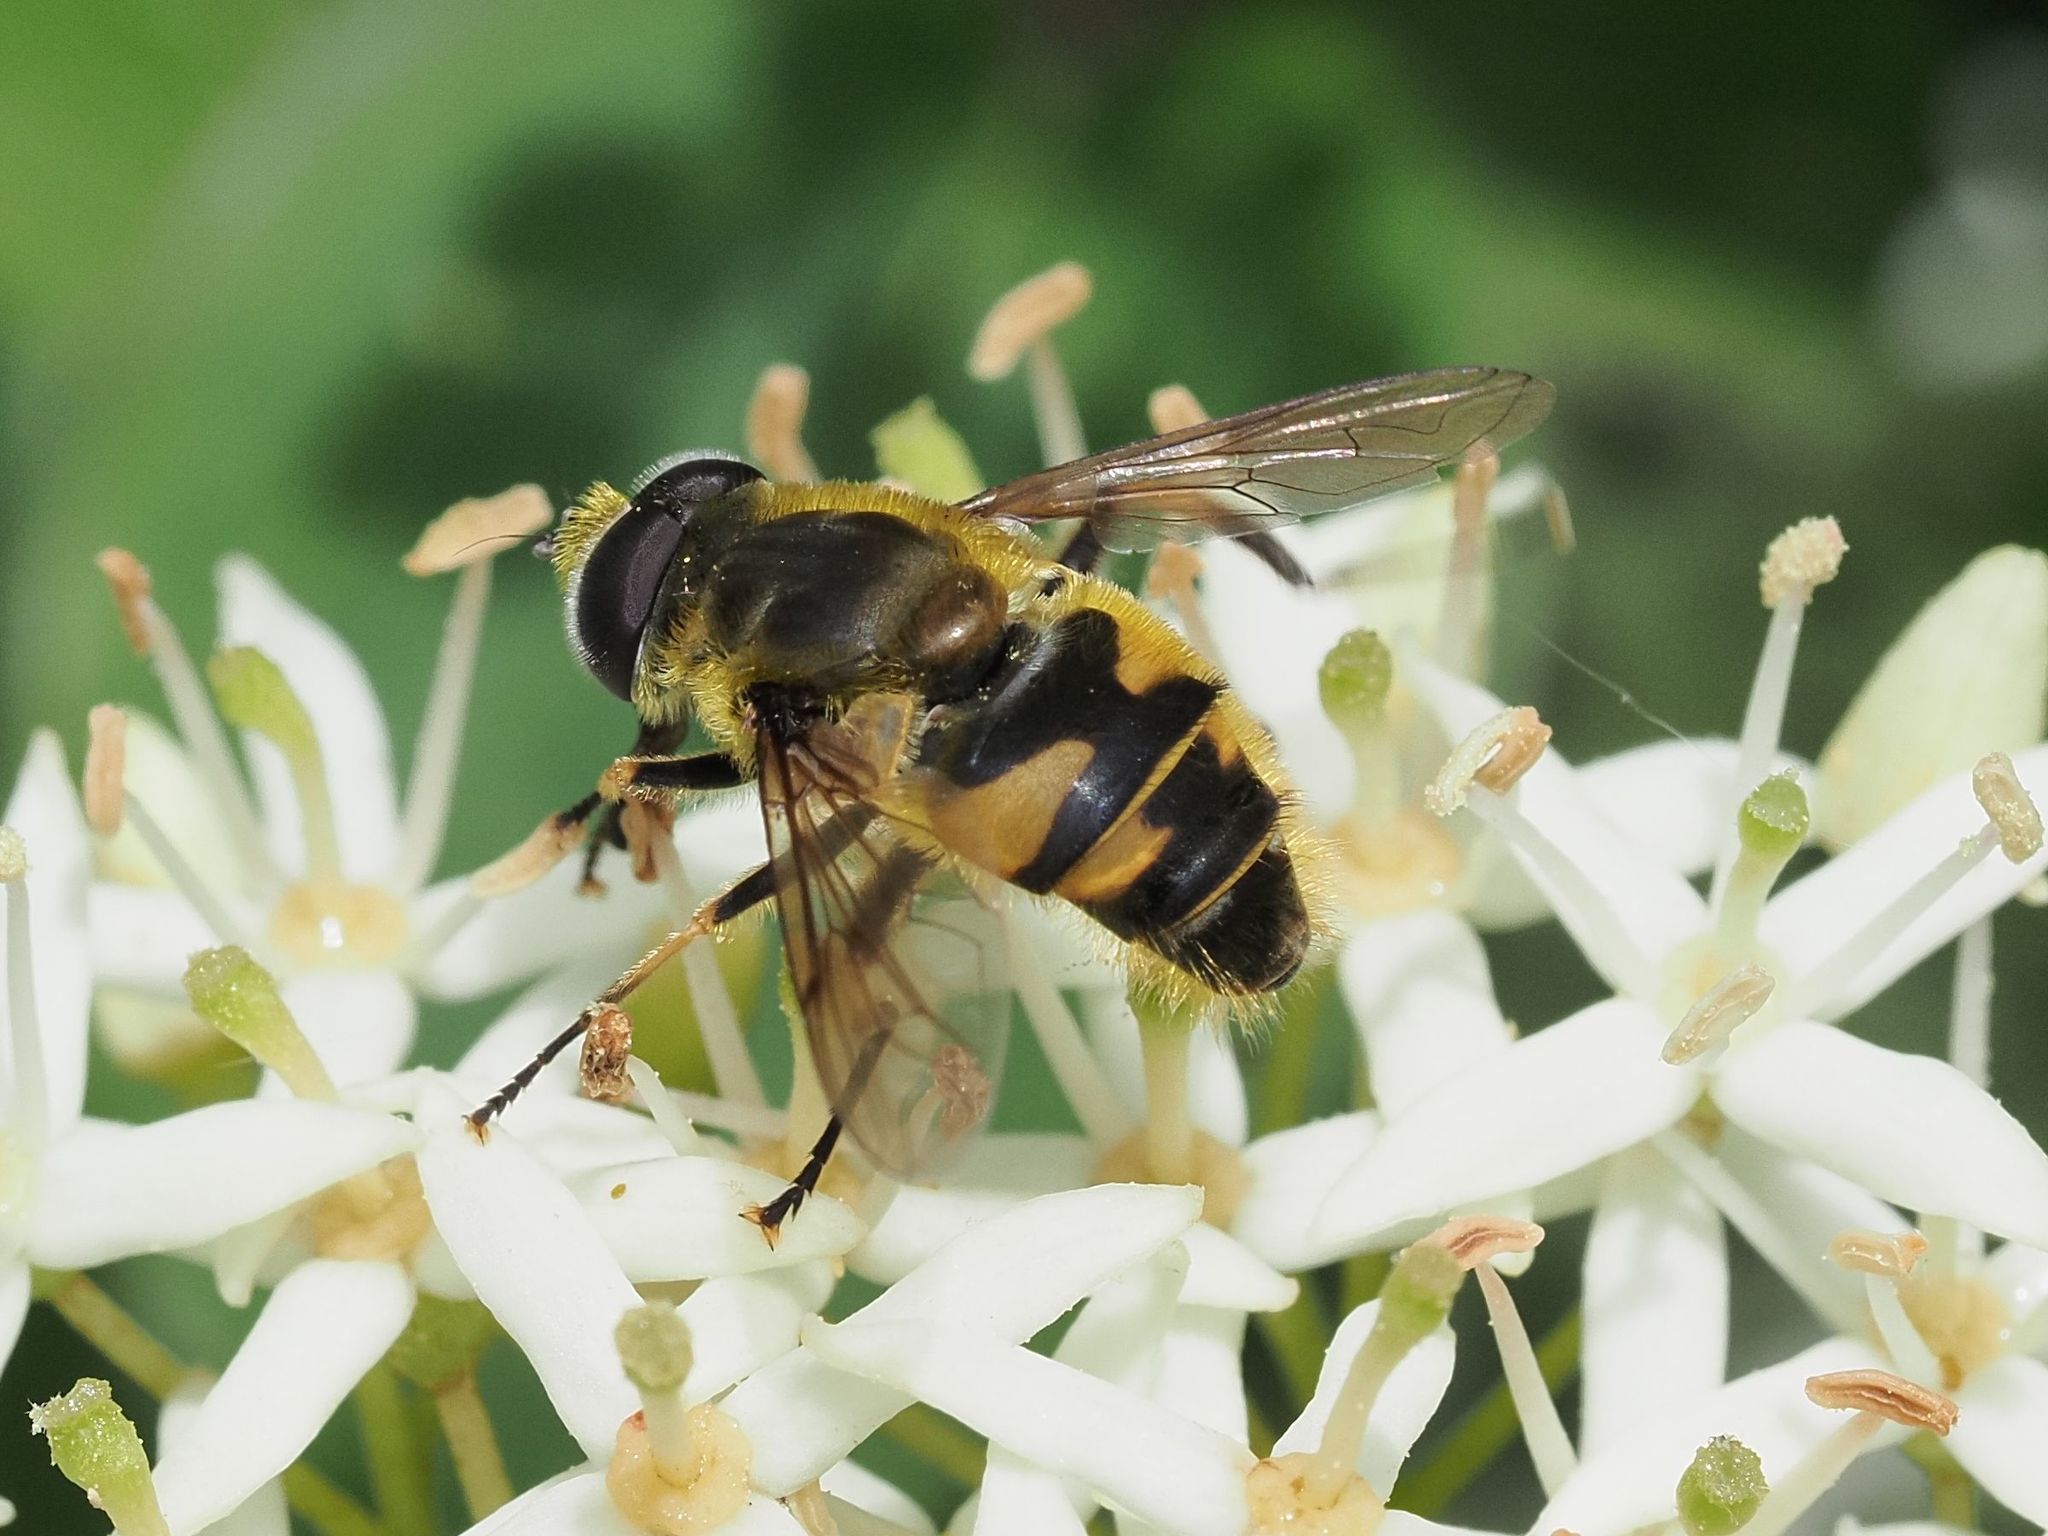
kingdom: Animalia
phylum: Arthropoda
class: Insecta
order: Diptera
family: Syrphidae
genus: Myathropa
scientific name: Myathropa florea
